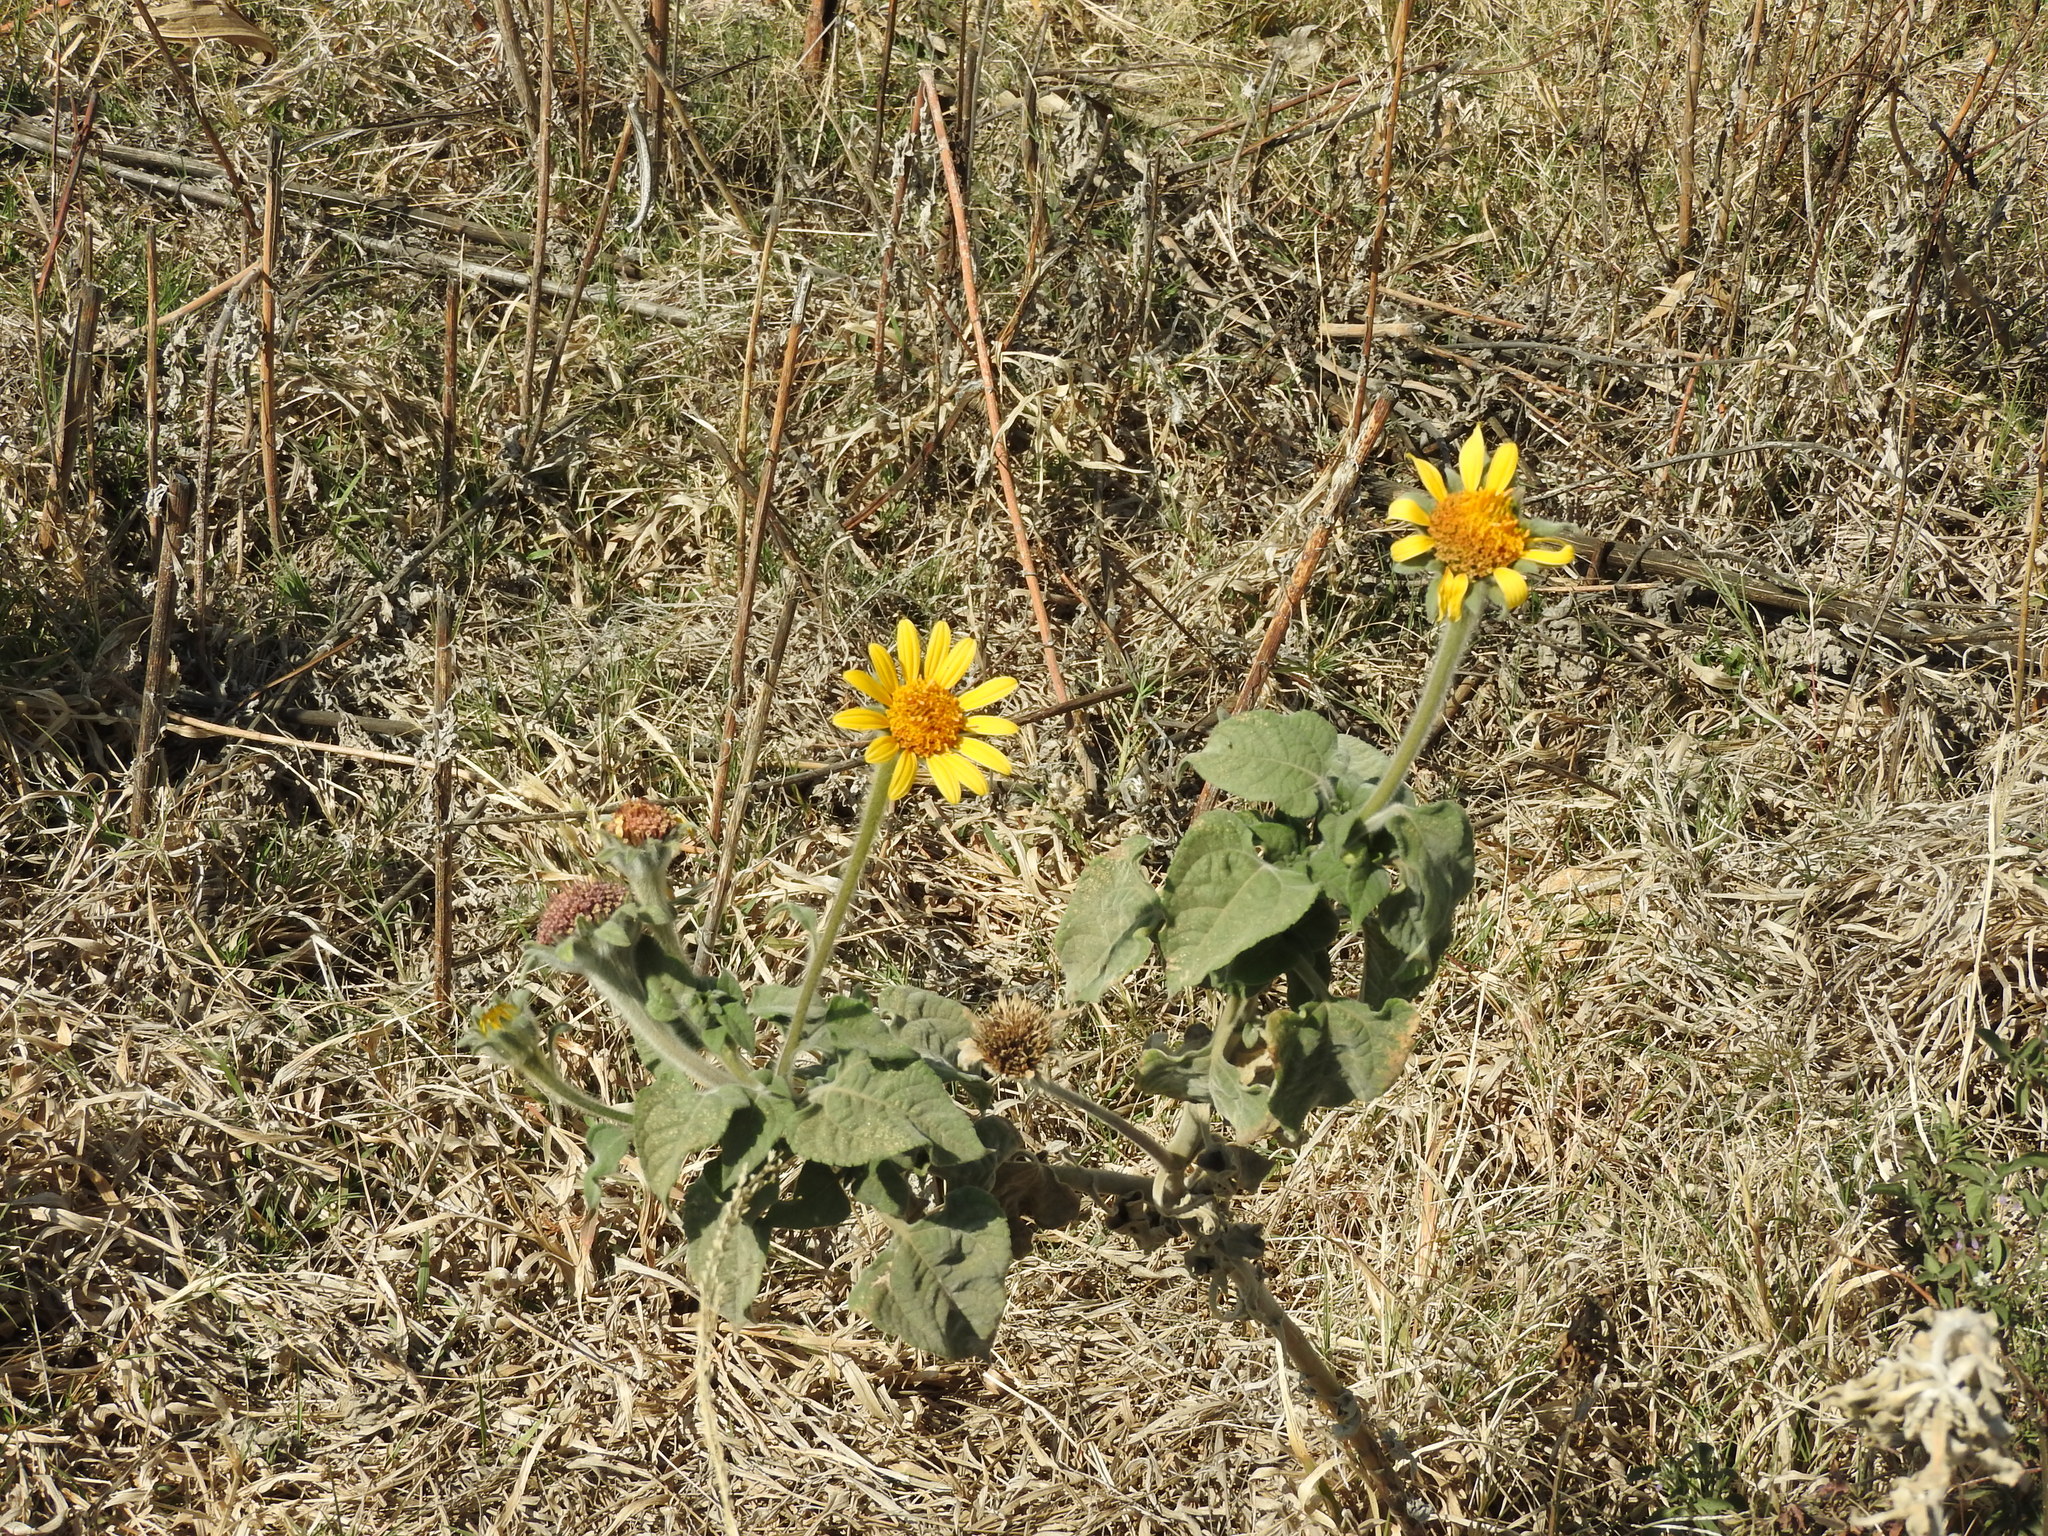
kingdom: Plantae
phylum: Tracheophyta
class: Magnoliopsida
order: Asterales
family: Asteraceae
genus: Tithonia
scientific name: Tithonia tubaeformis
